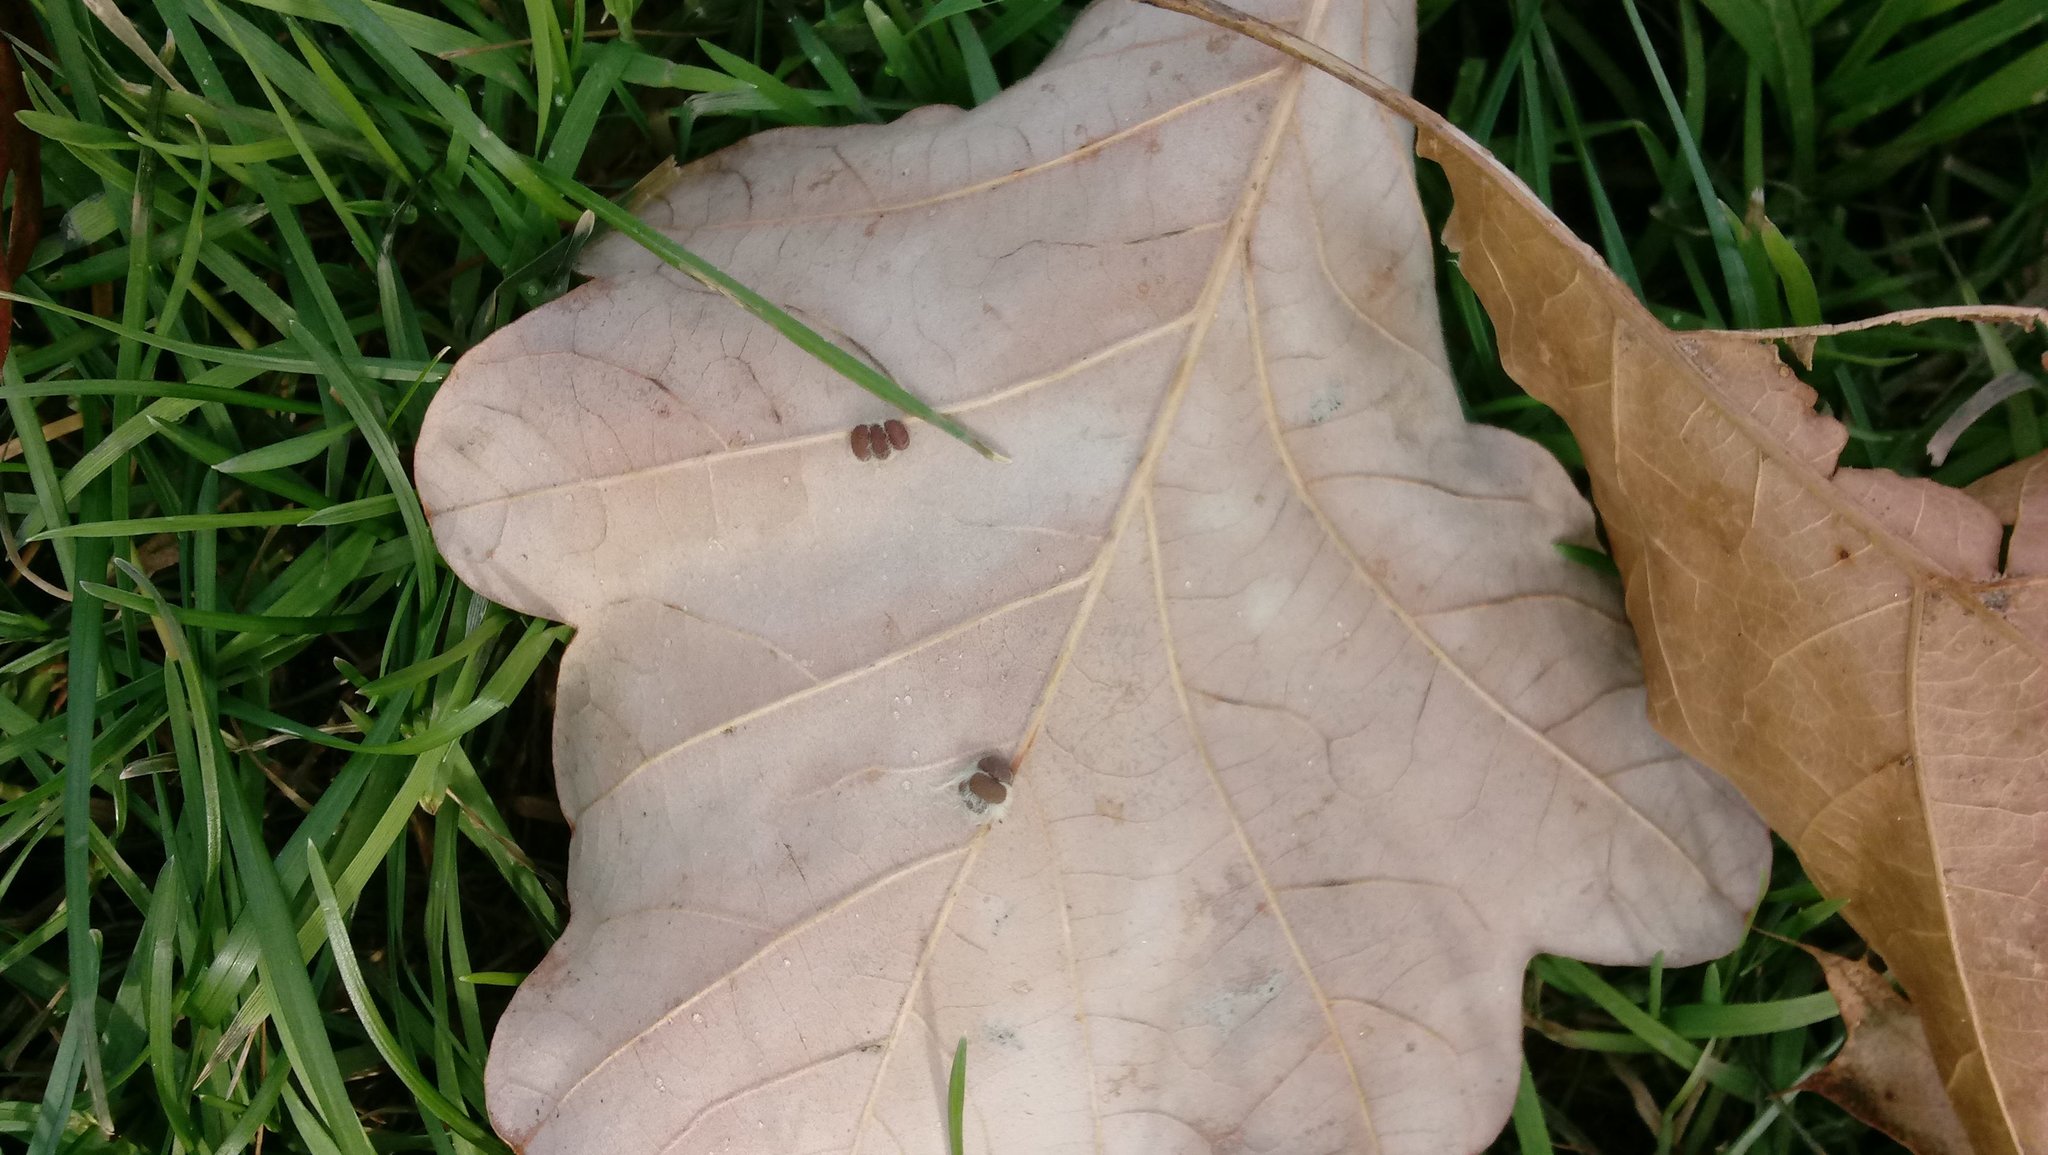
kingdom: Animalia
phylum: Arthropoda
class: Insecta
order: Hymenoptera
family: Cynipidae
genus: Andricus
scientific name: Andricus Druon ignotum
